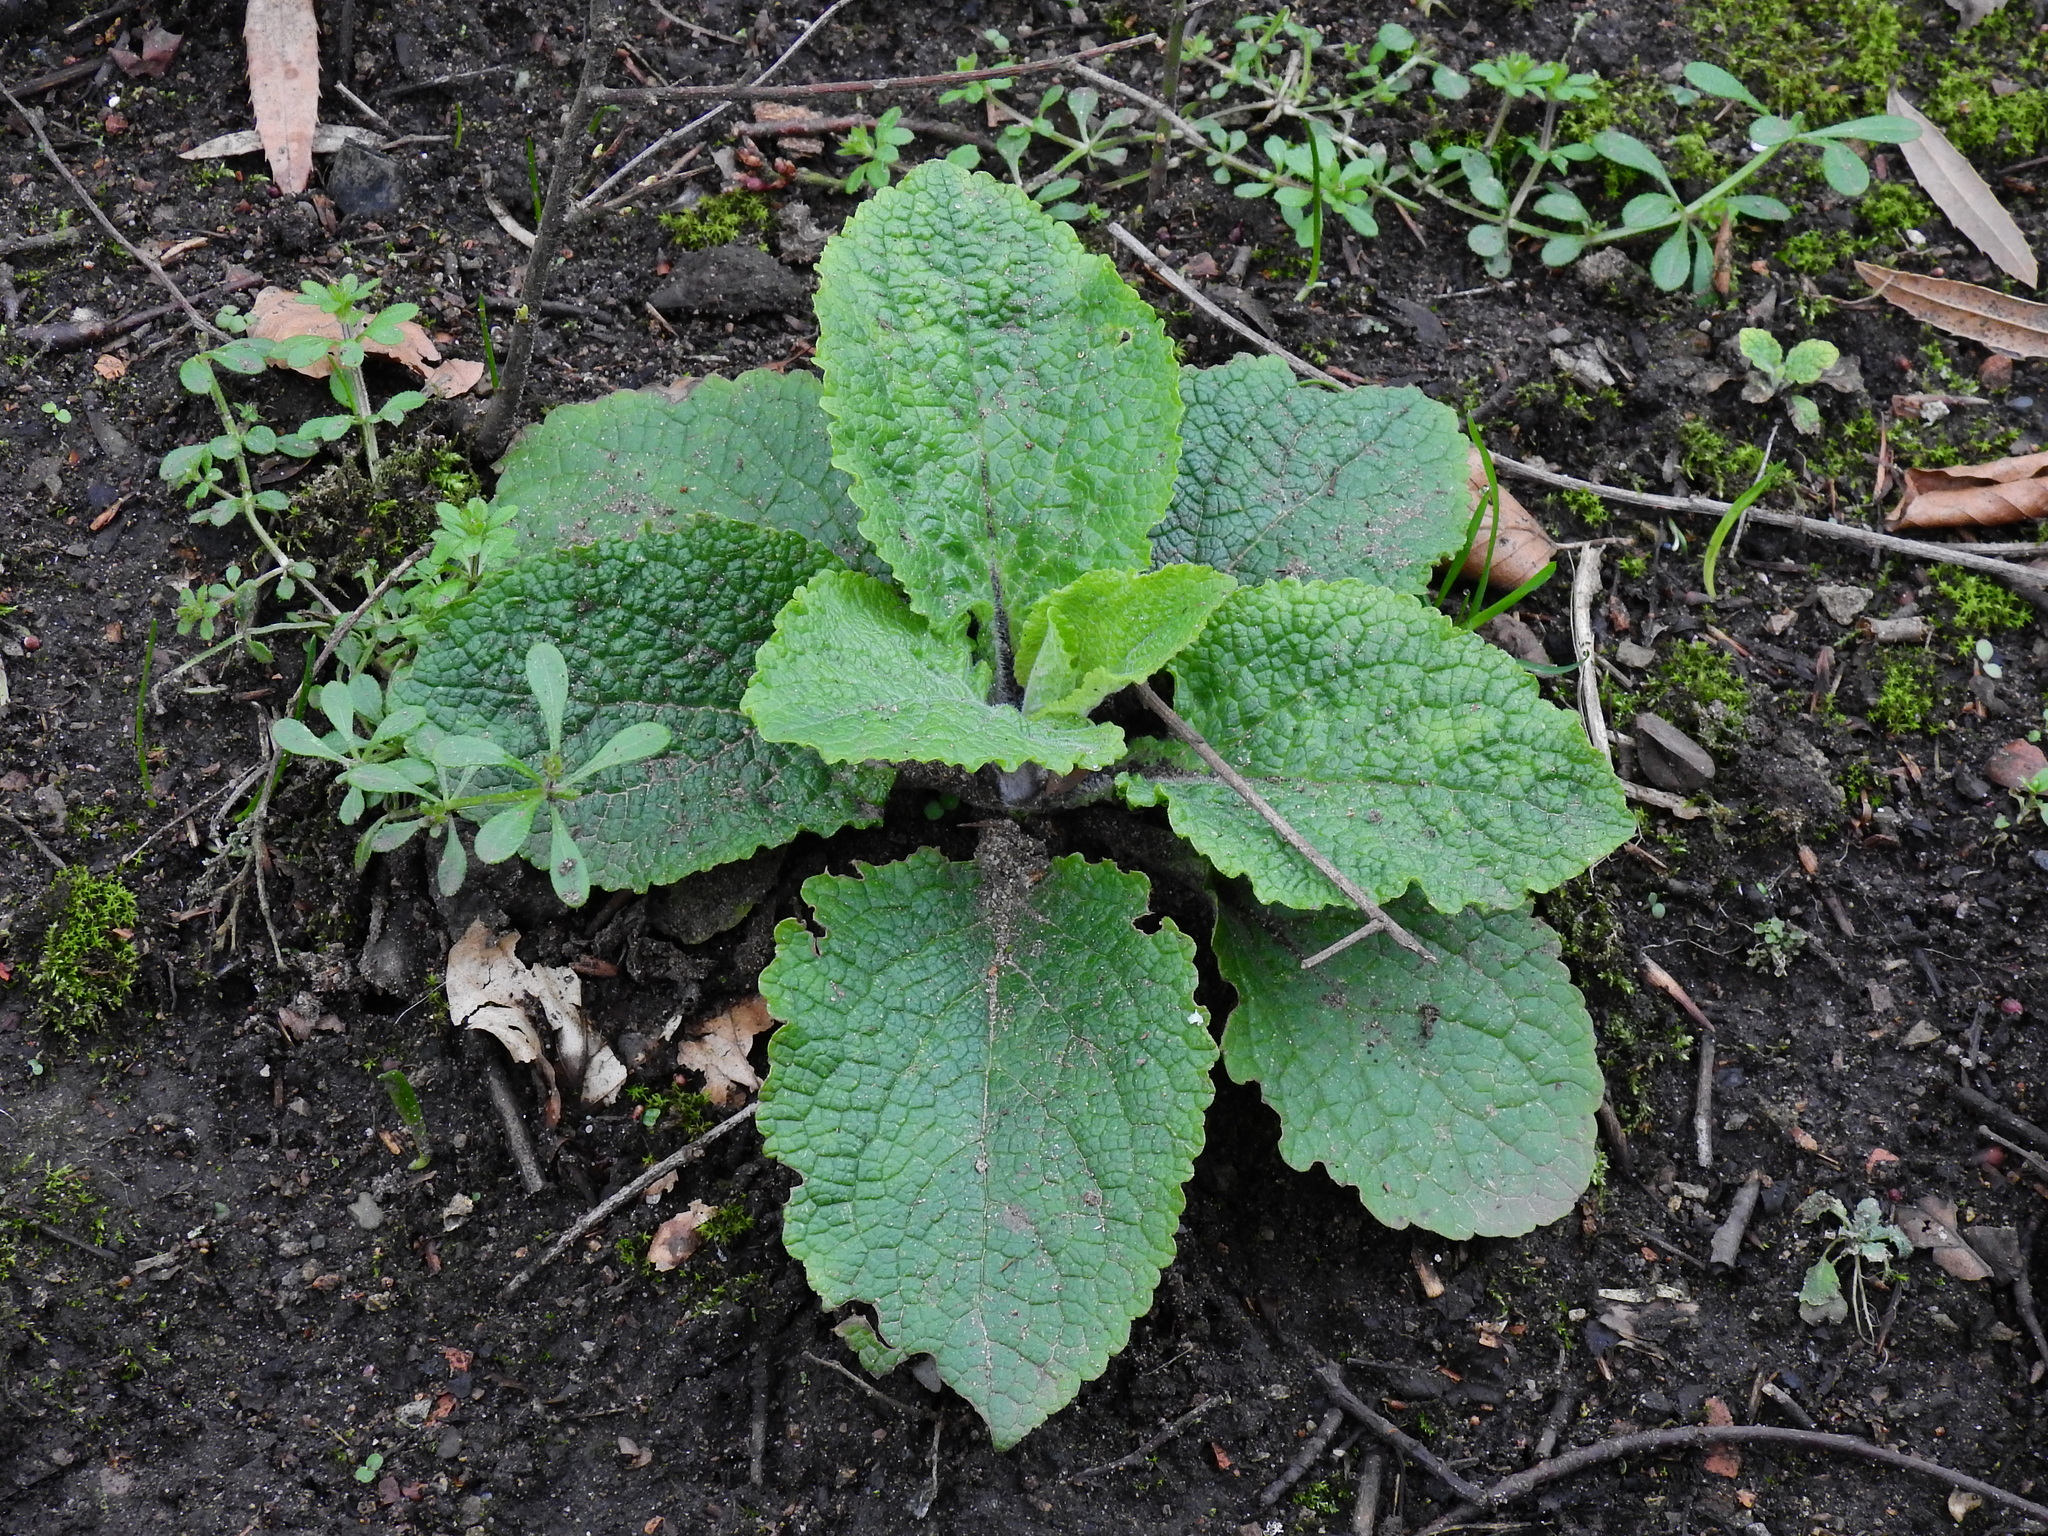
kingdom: Plantae
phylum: Tracheophyta
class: Magnoliopsida
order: Lamiales
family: Plantaginaceae
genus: Digitalis
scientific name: Digitalis purpurea
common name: Foxglove
